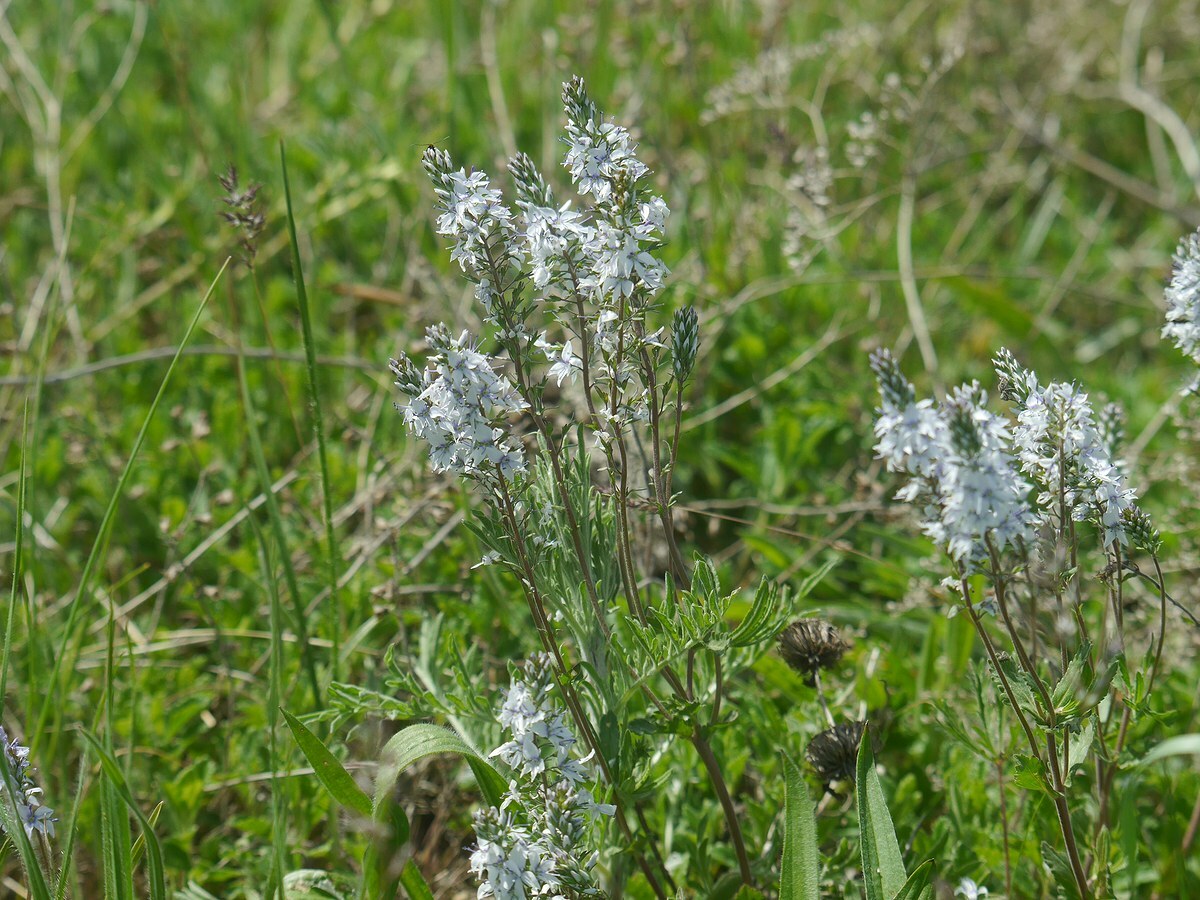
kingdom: Plantae
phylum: Tracheophyta
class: Magnoliopsida
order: Lamiales
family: Plantaginaceae
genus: Veronica
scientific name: Veronica austriaca
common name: Large speedwell
